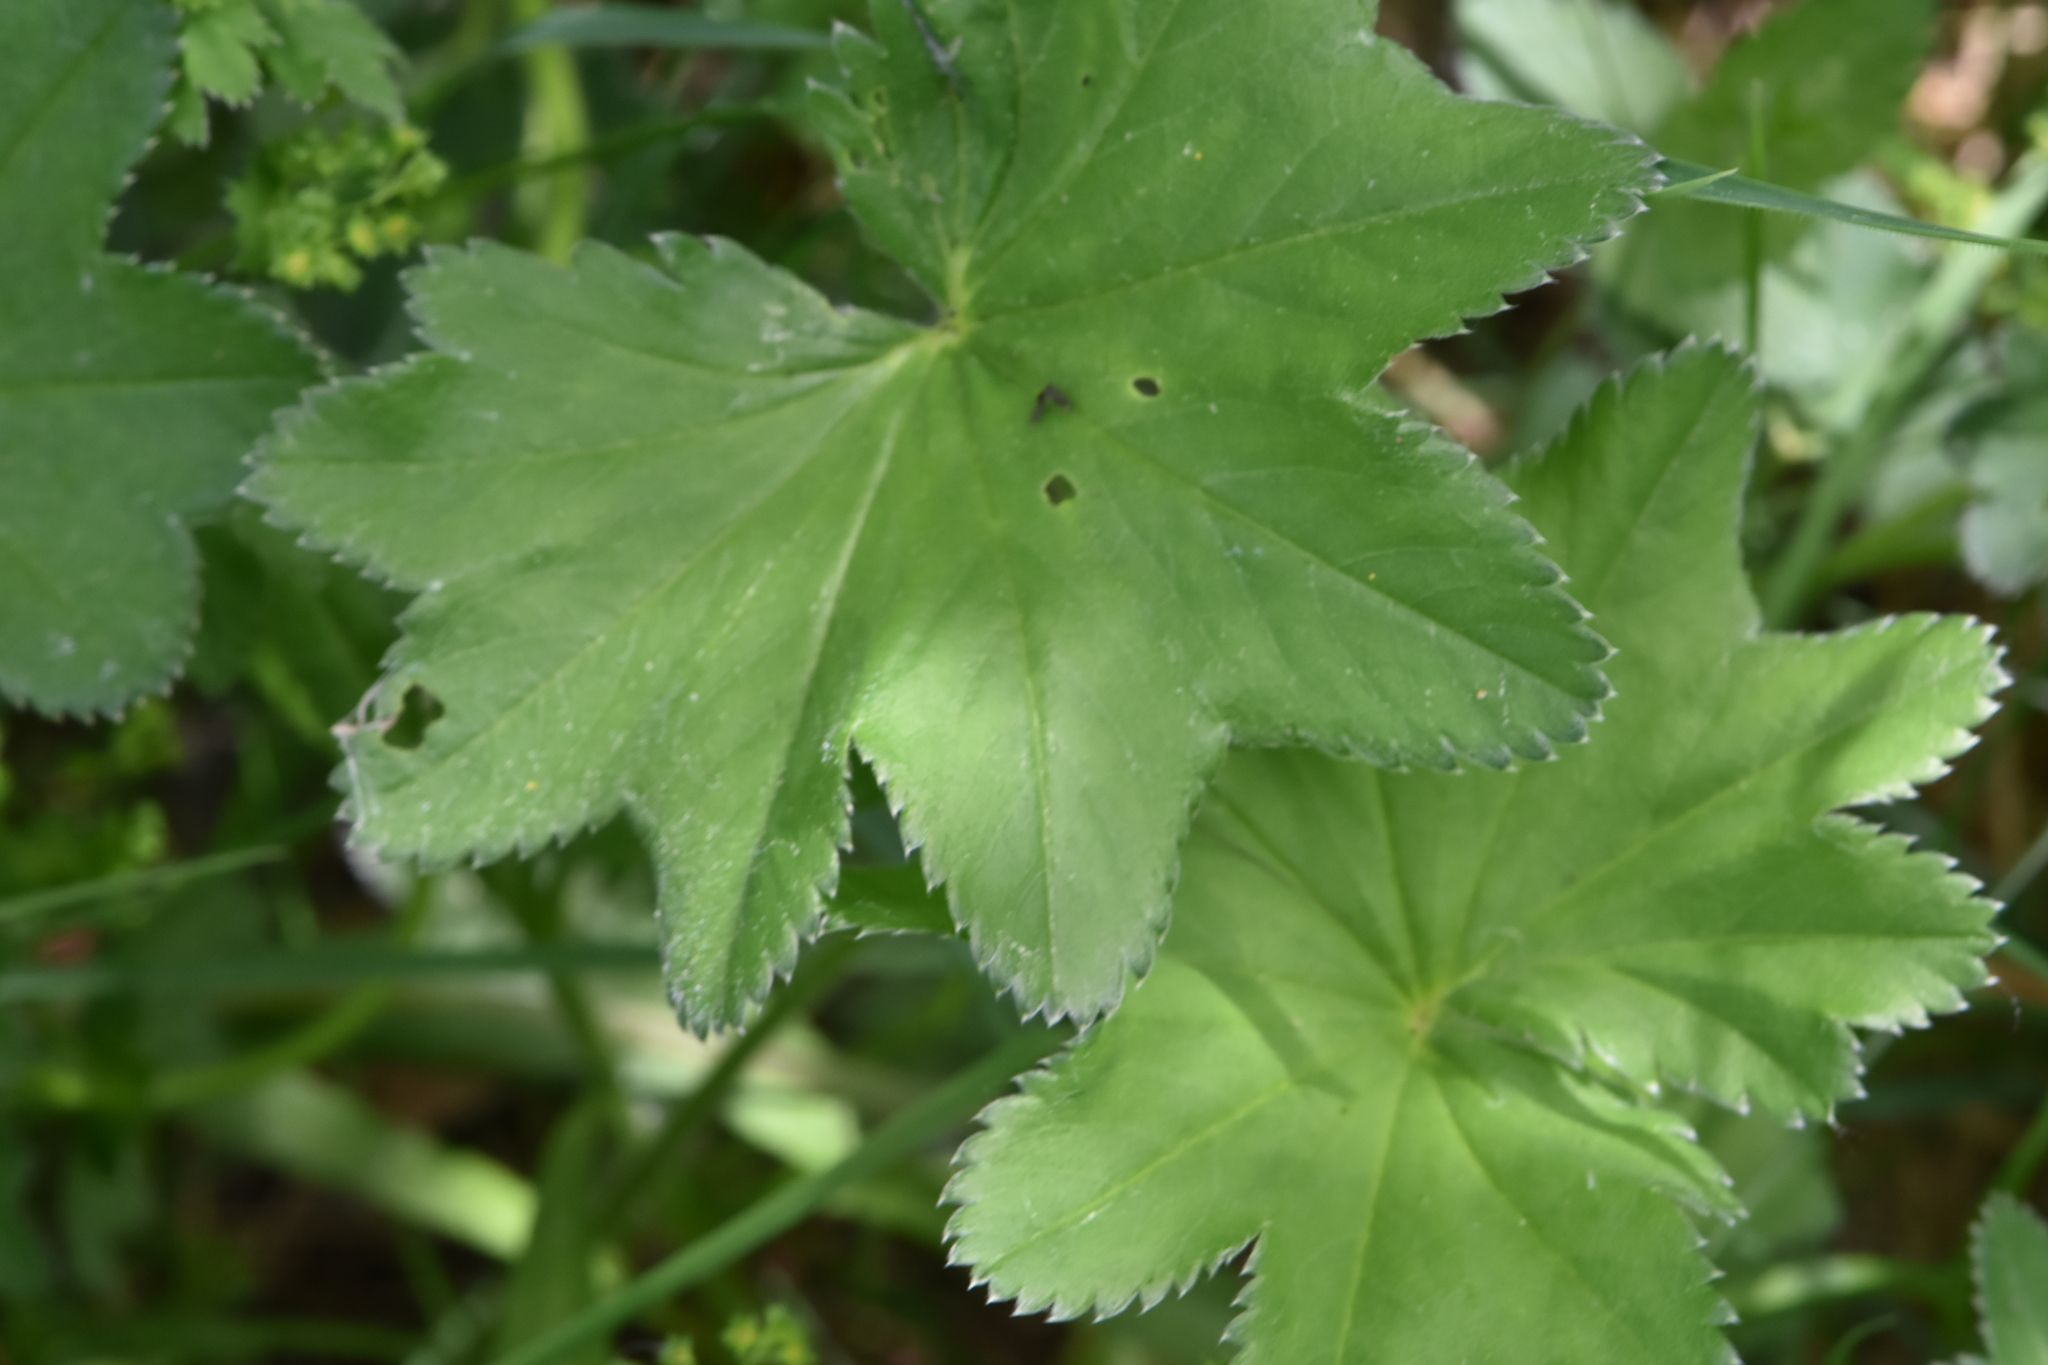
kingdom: Plantae
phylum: Tracheophyta
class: Magnoliopsida
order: Rosales
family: Rosaceae
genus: Alchemilla
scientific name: Alchemilla micans
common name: Gleaming lady's mantle
